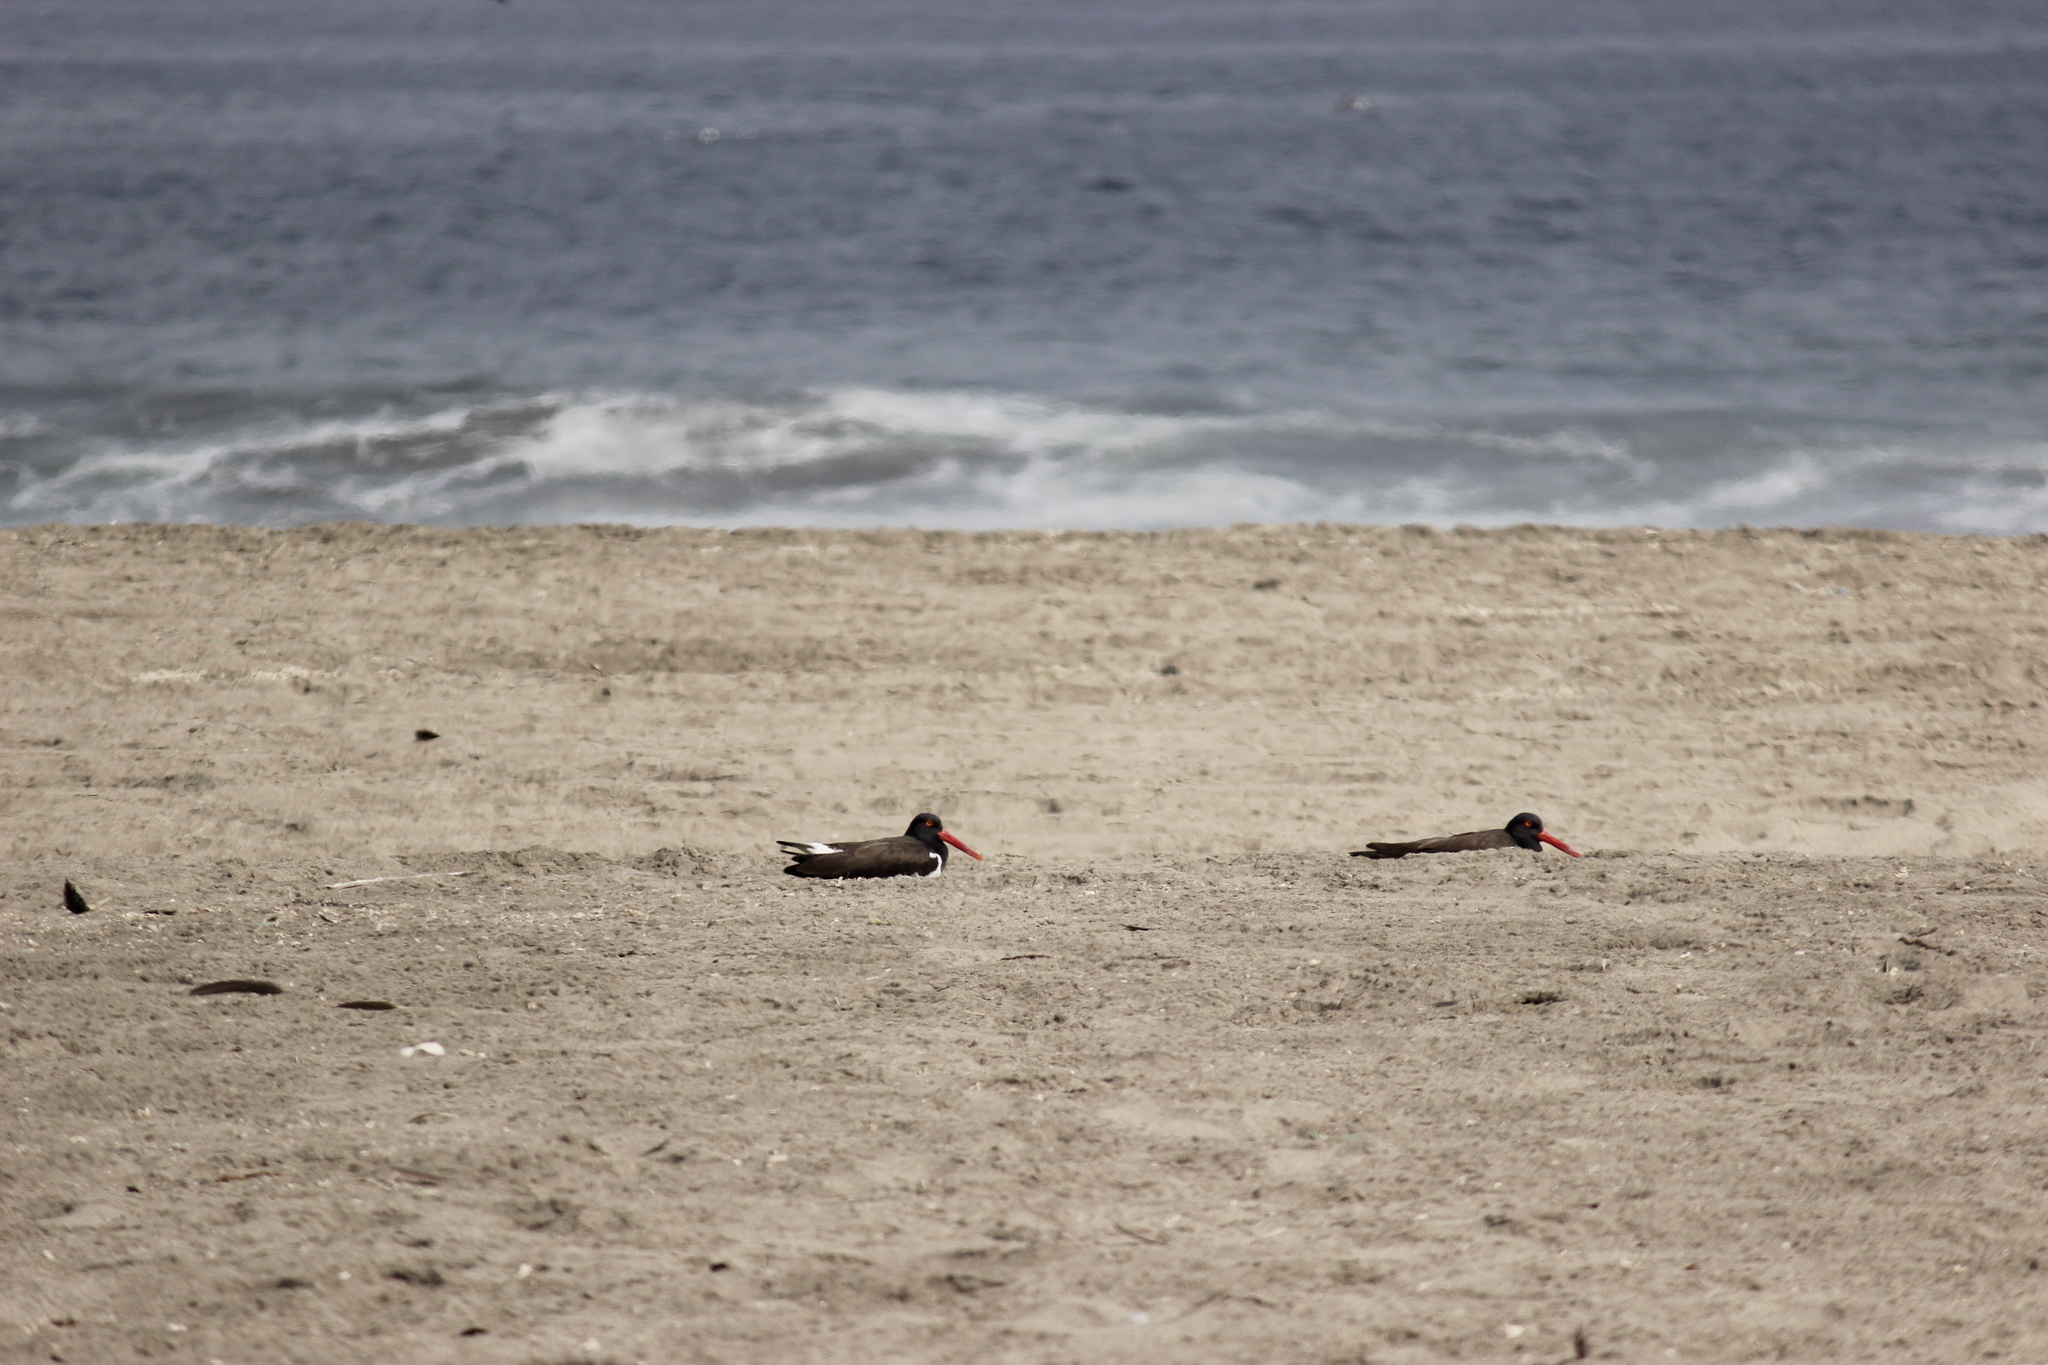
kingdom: Animalia
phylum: Chordata
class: Aves
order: Charadriiformes
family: Haematopodidae
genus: Haematopus
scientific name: Haematopus palliatus
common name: American oystercatcher
